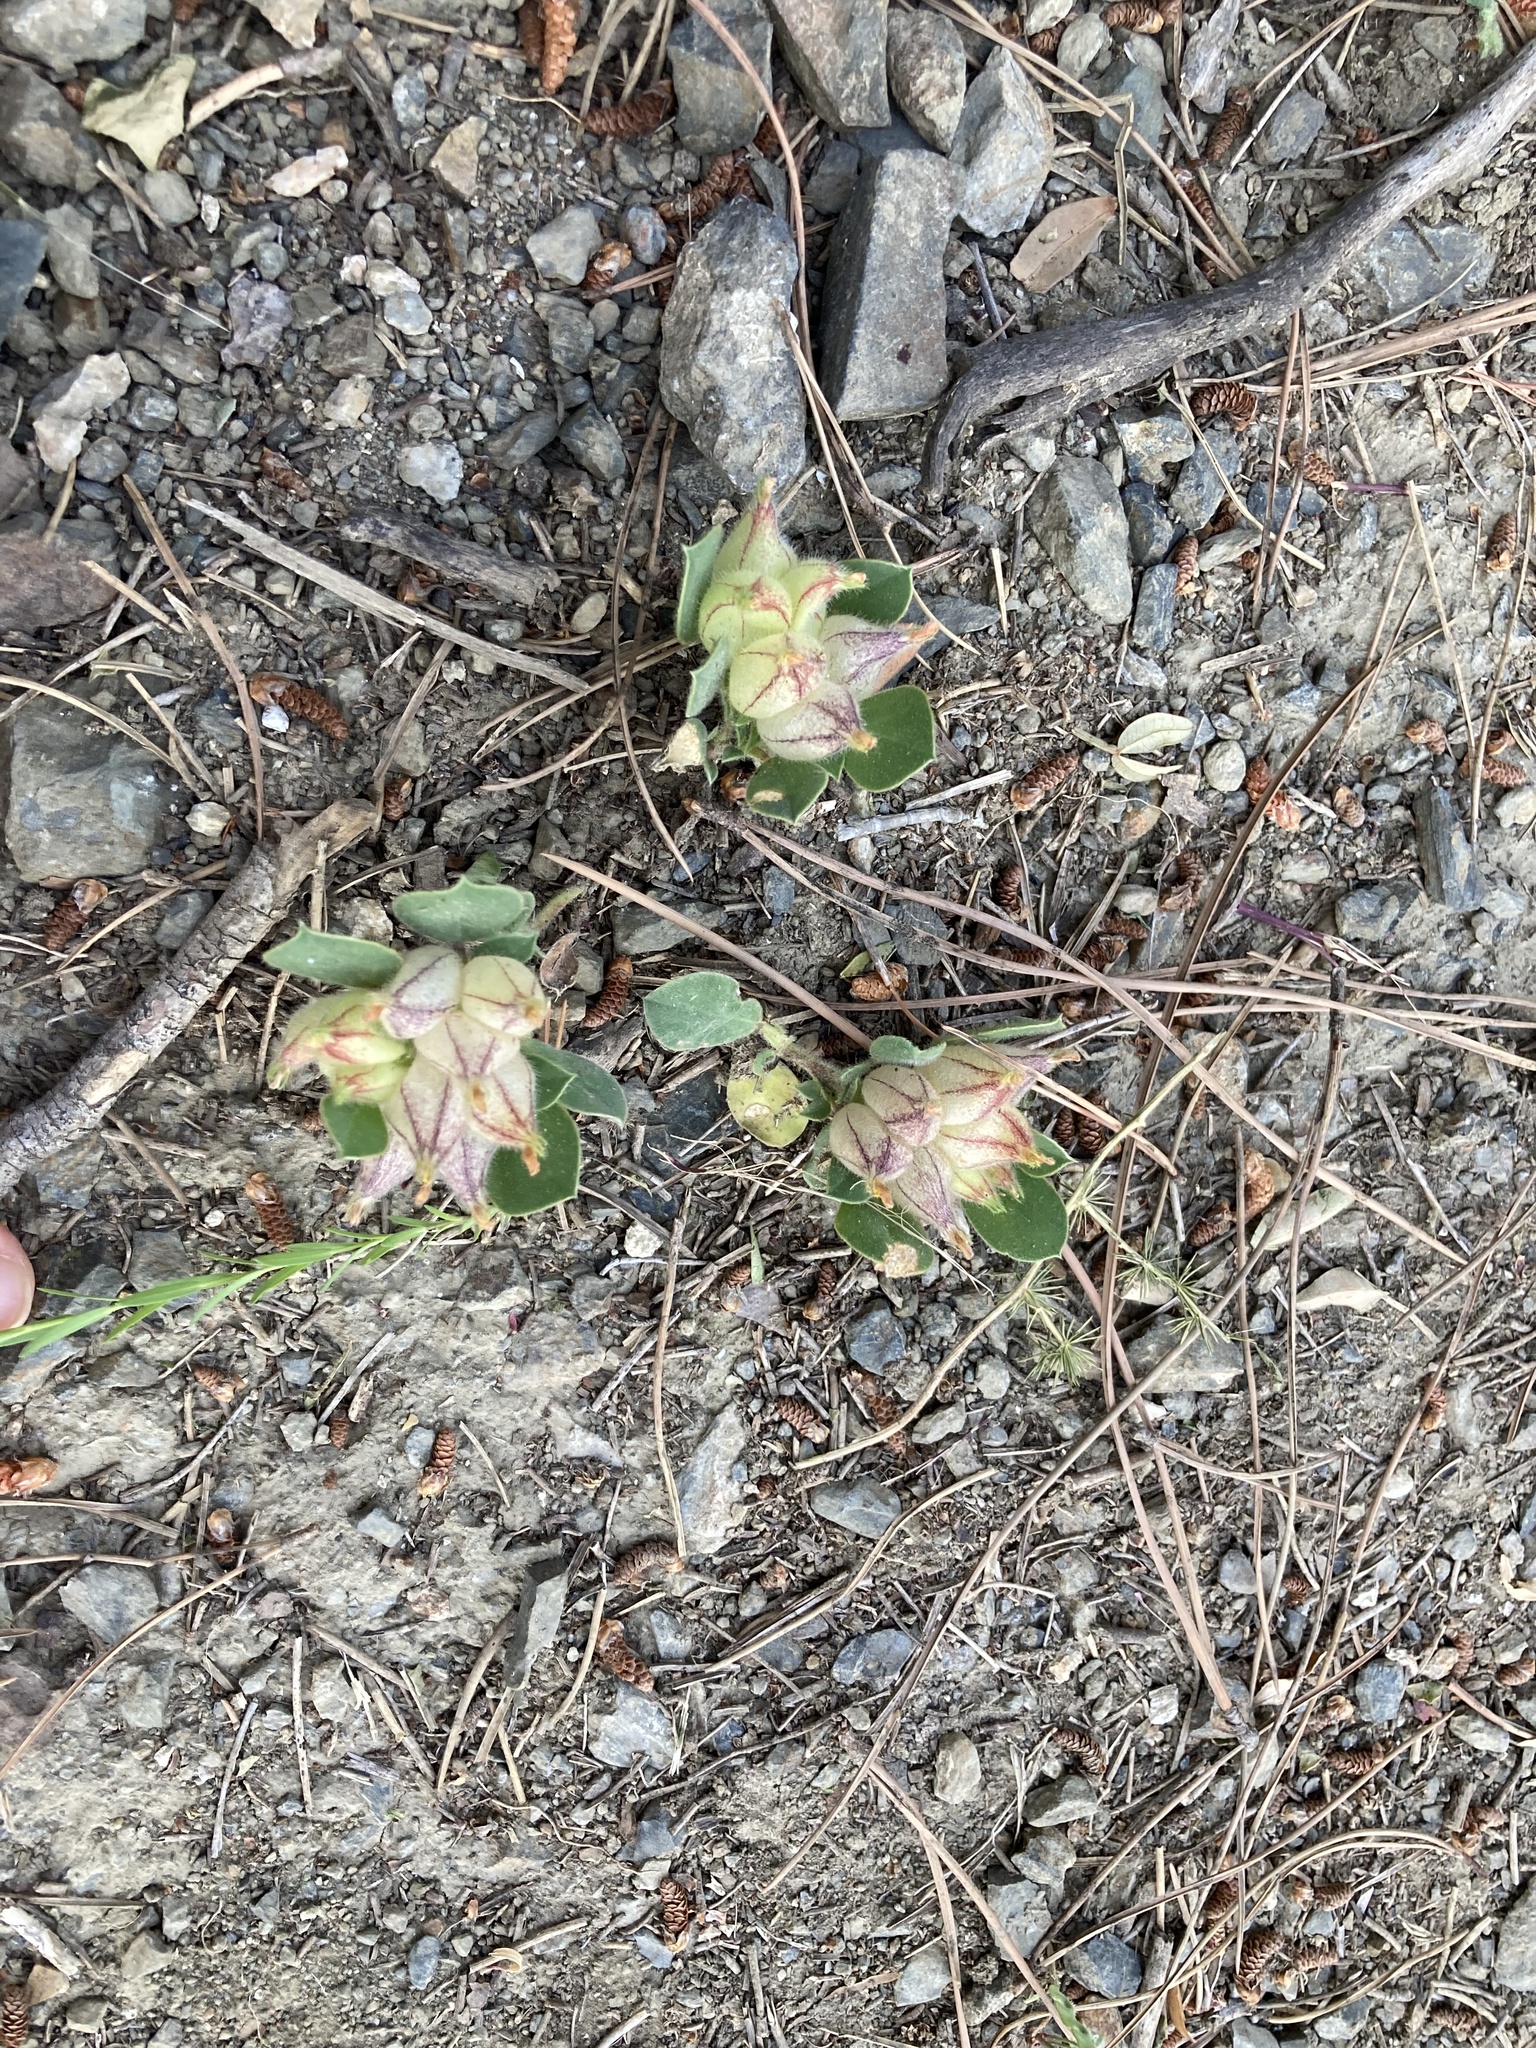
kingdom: Plantae
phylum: Tracheophyta
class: Magnoliopsida
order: Fabales
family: Fabaceae
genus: Tripodion
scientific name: Tripodion tetraphyllum
